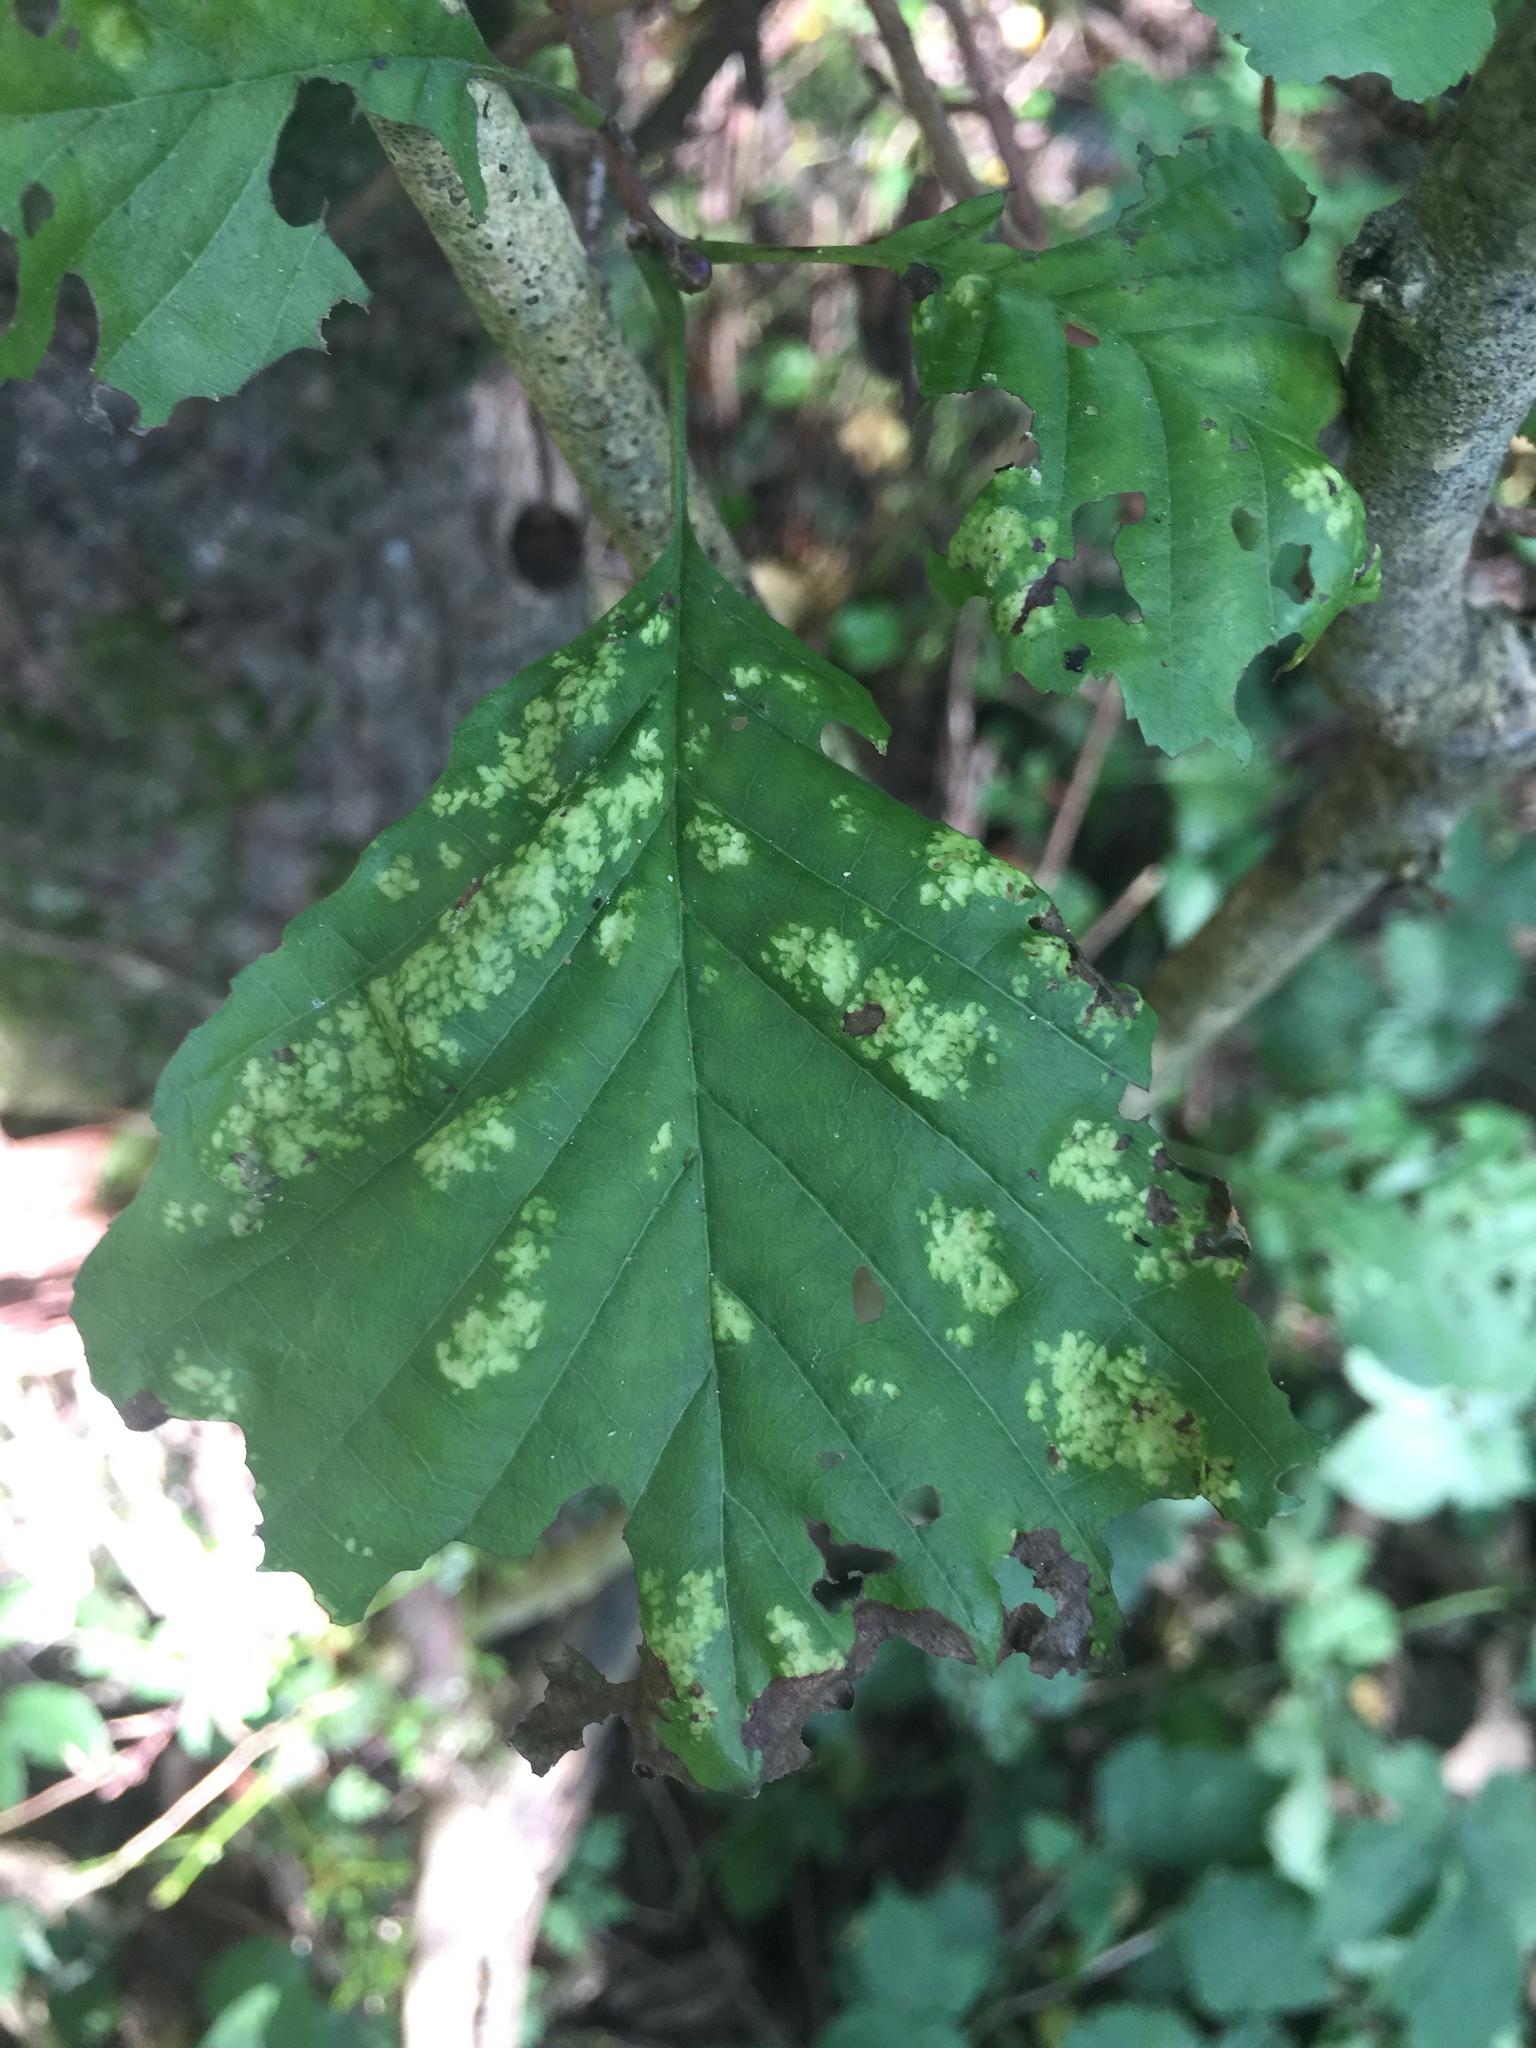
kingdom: Animalia
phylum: Arthropoda
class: Arachnida
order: Trombidiformes
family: Eriophyidae
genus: Acalitus
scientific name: Acalitus brevitarsus
